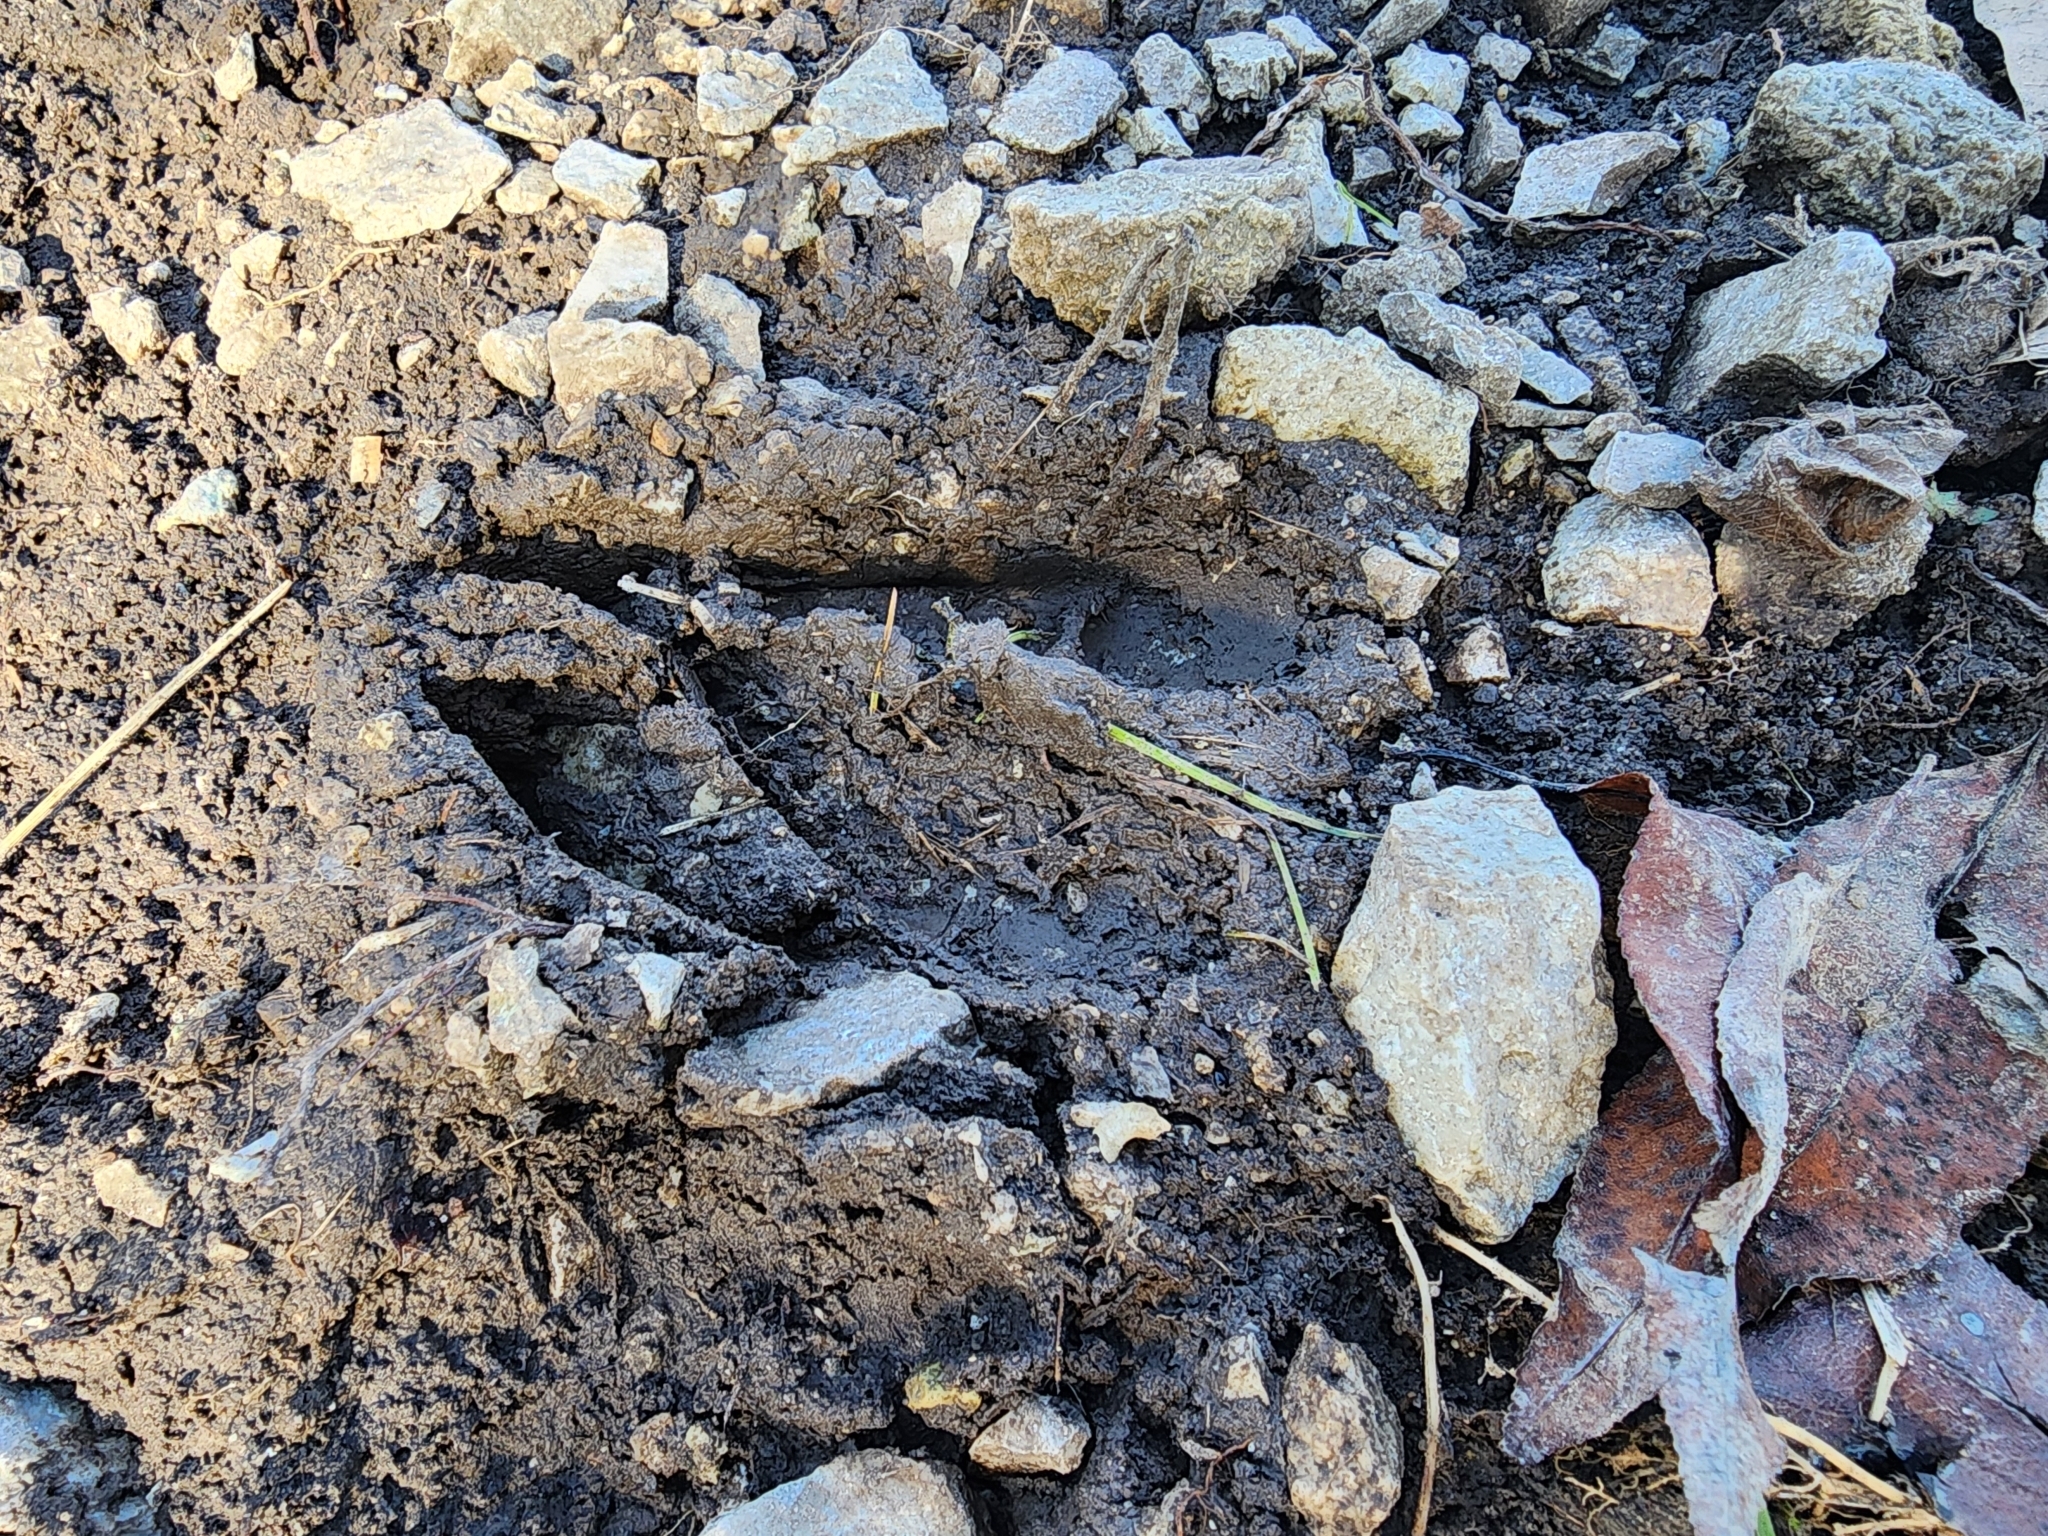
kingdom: Animalia
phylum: Chordata
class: Mammalia
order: Artiodactyla
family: Cervidae
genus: Odocoileus
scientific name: Odocoileus virginianus
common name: White-tailed deer
